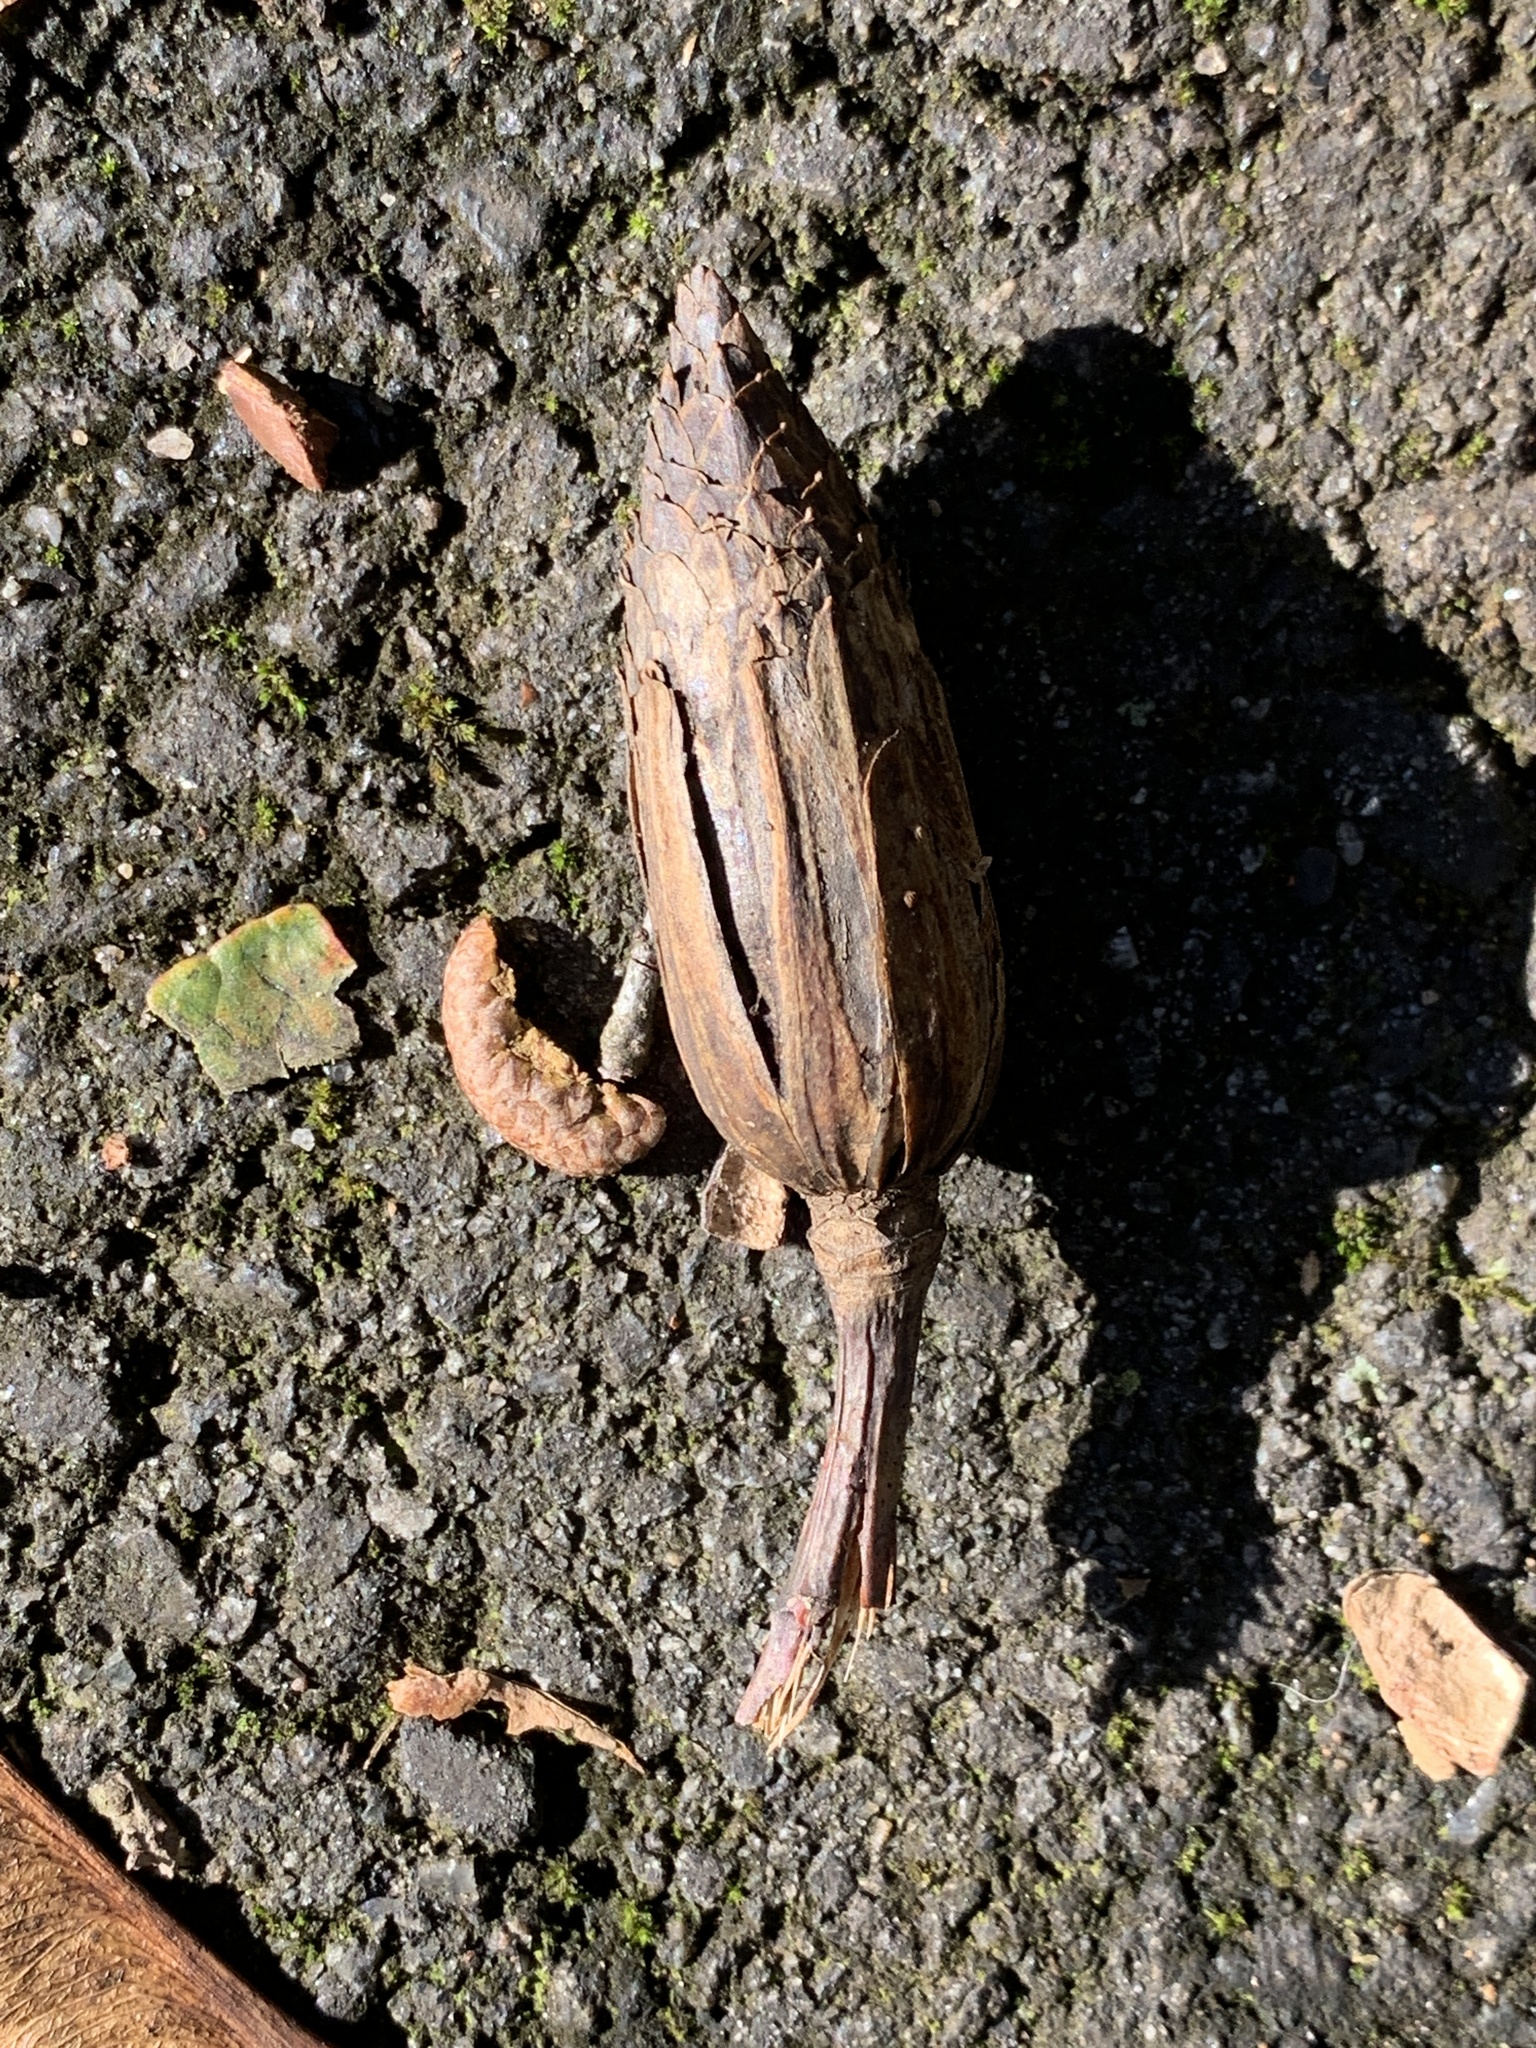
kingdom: Plantae
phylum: Tracheophyta
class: Magnoliopsida
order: Magnoliales
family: Magnoliaceae
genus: Liriodendron
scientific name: Liriodendron tulipifera
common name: Tulip tree
